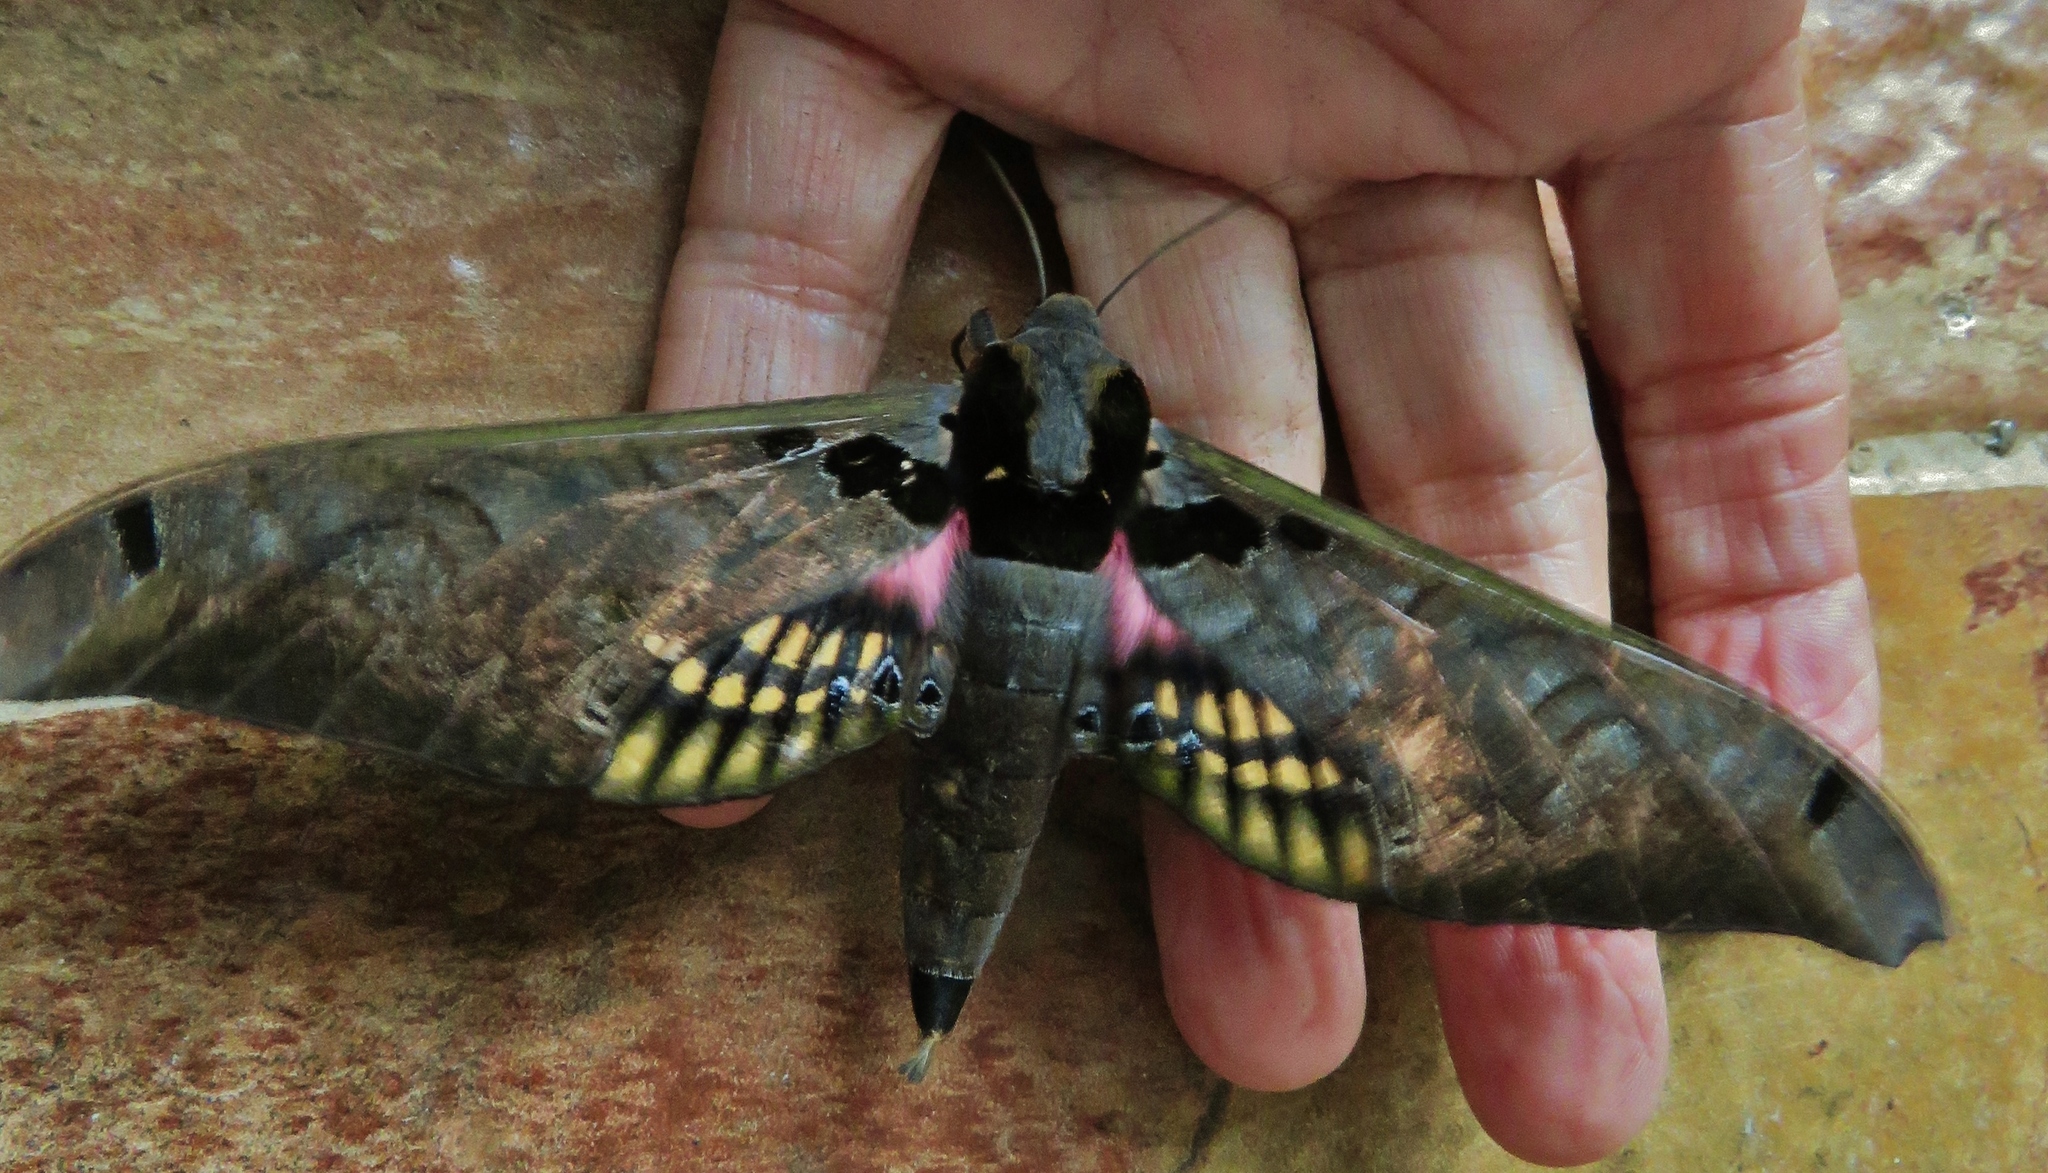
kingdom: Animalia
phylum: Arthropoda
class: Insecta
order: Lepidoptera
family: Sphingidae
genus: Adhemarius
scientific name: Adhemarius sexoculata
